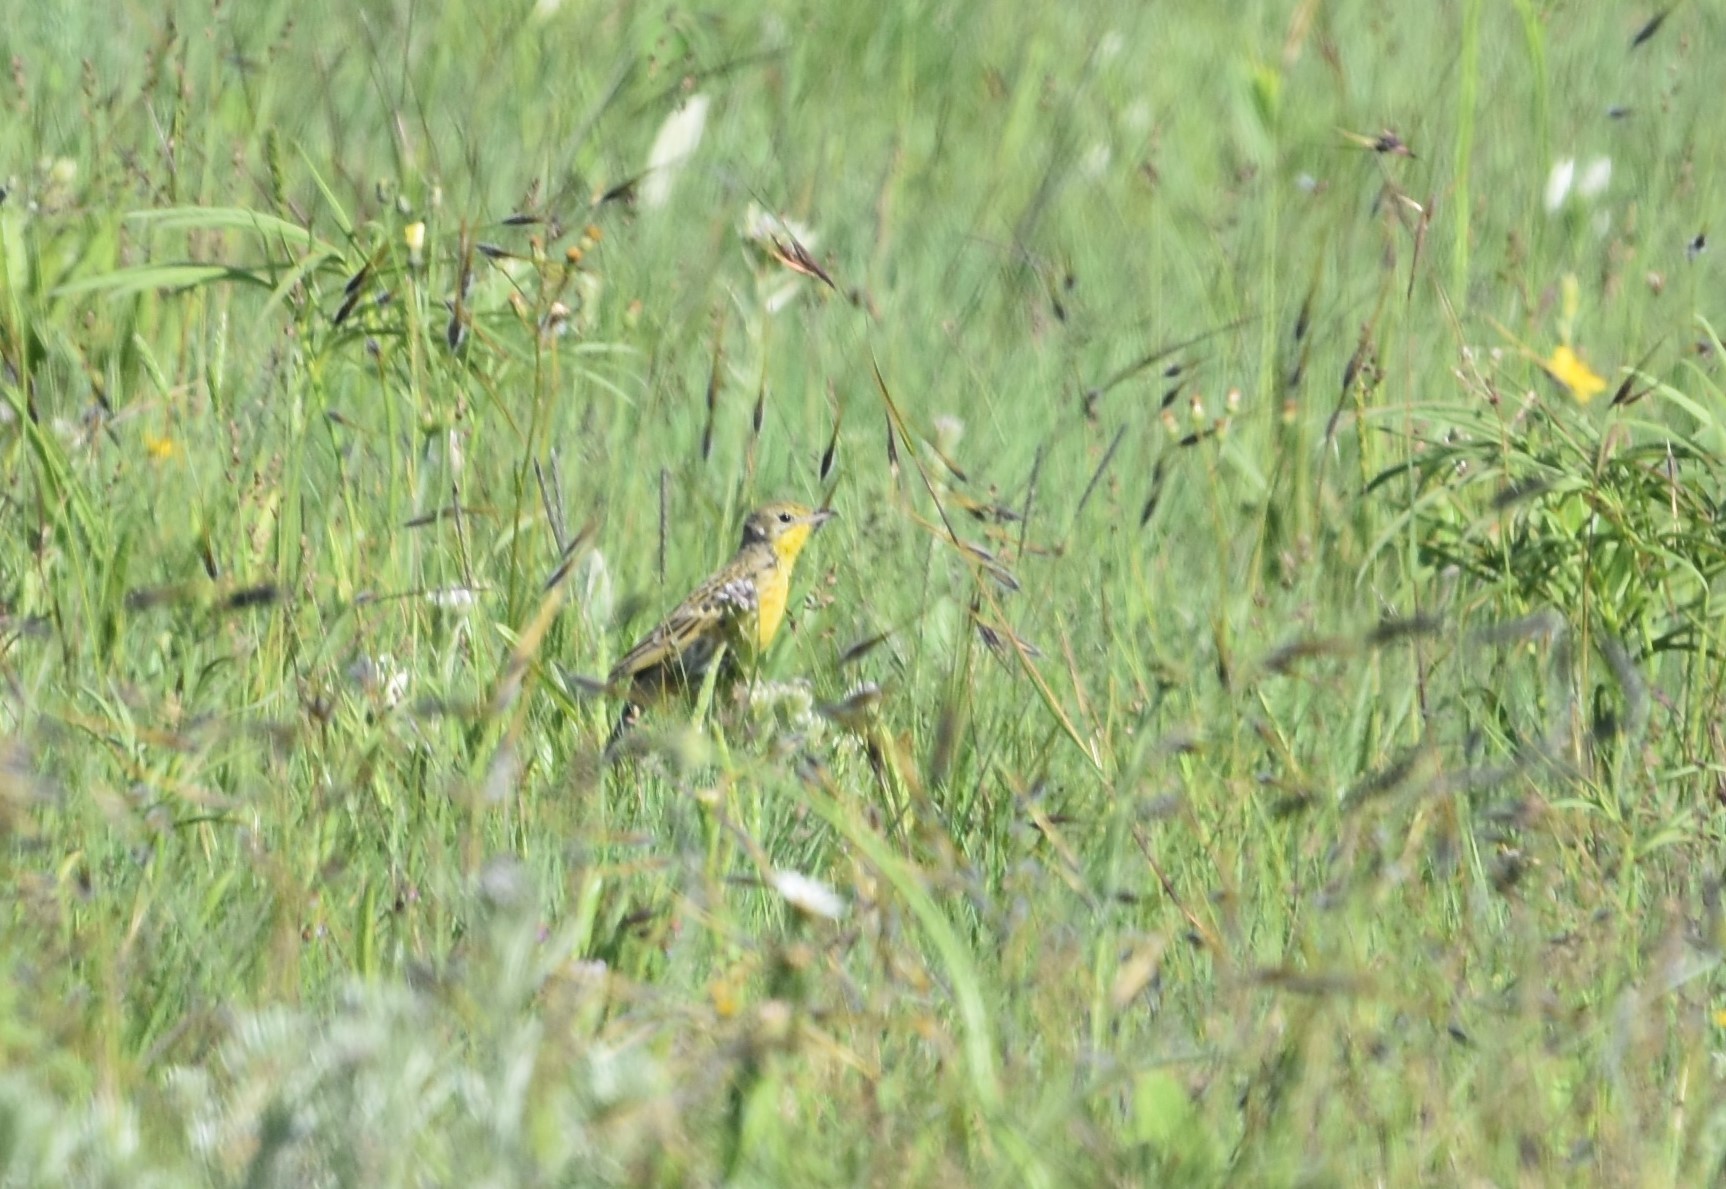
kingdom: Animalia
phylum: Chordata
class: Aves
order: Passeriformes
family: Motacillidae
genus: Anthus
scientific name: Anthus chloris
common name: Yellow-breasted pipit
